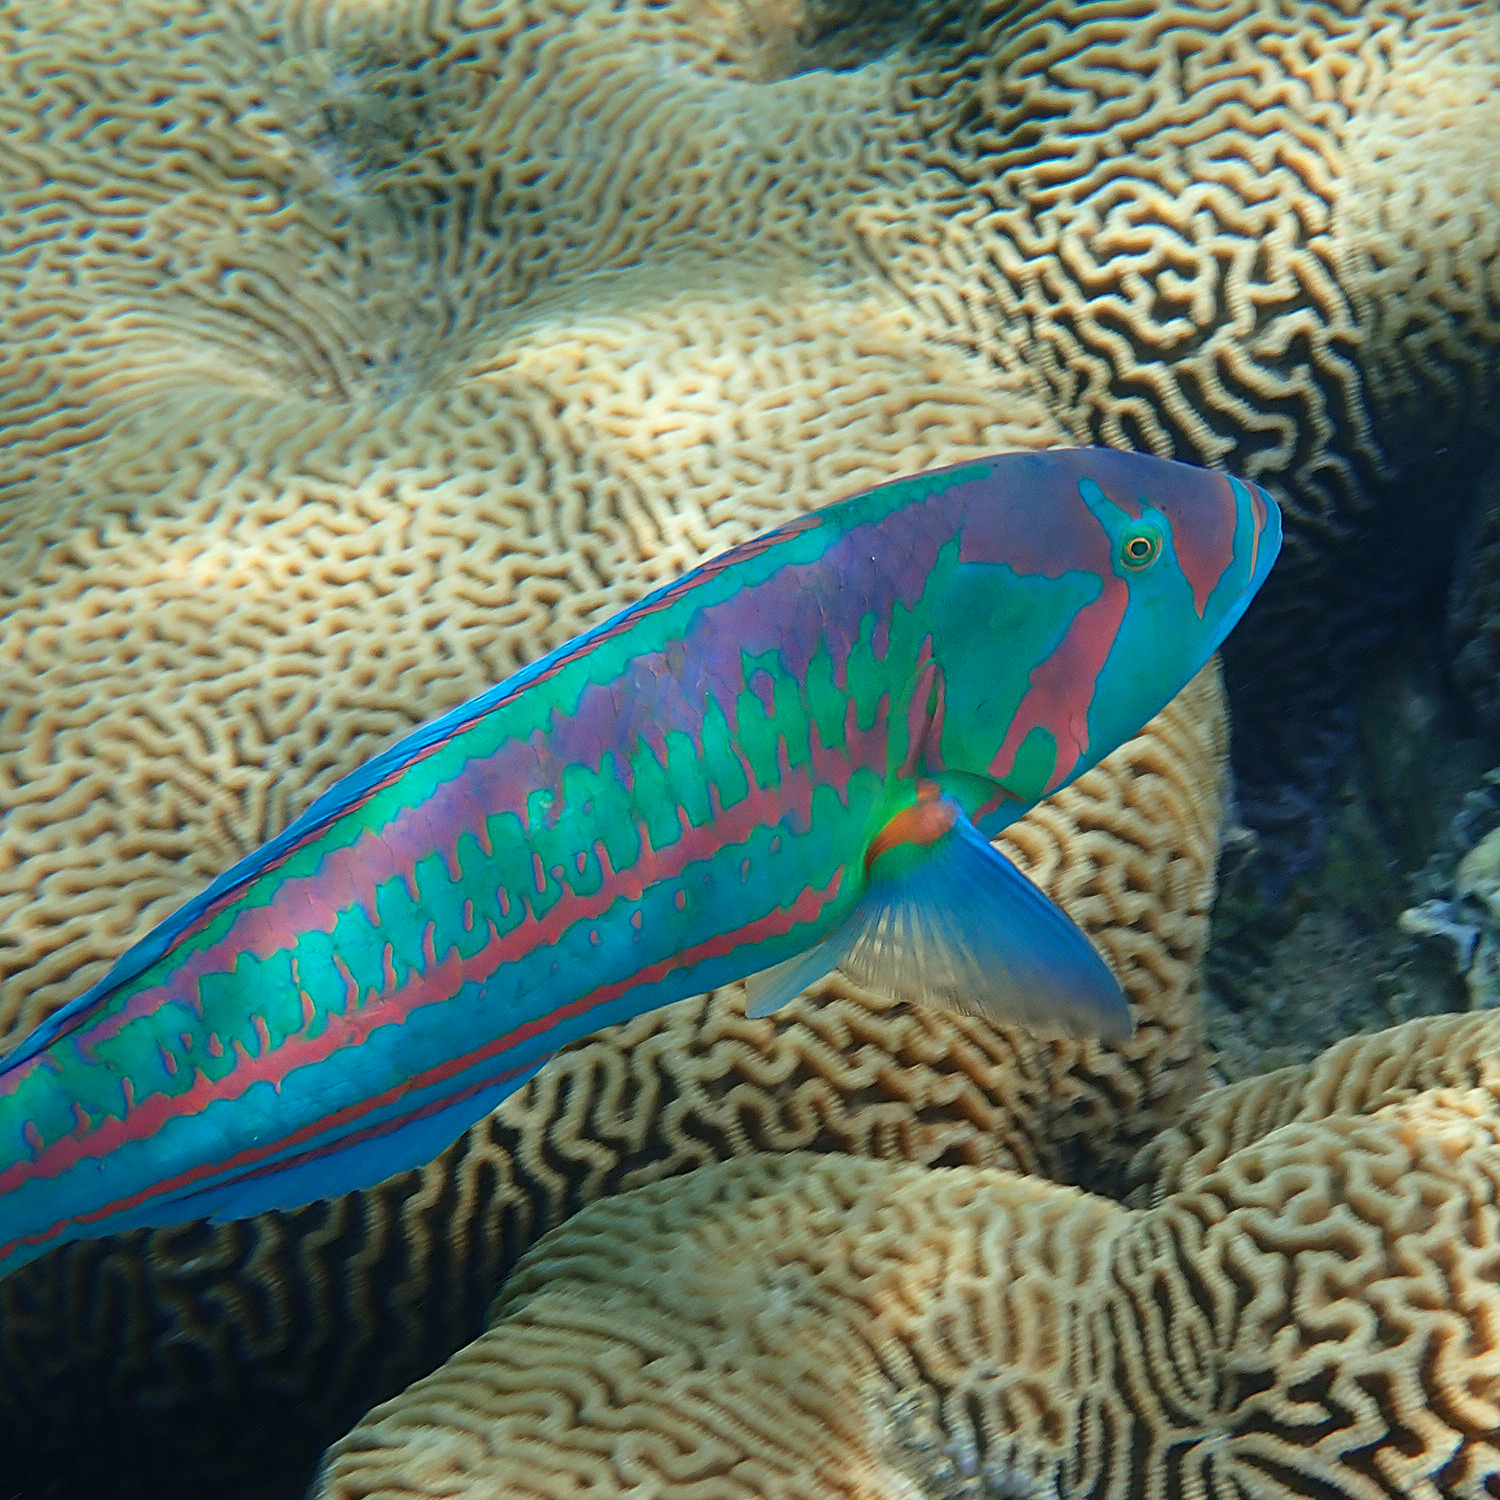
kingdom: Animalia
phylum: Chordata
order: Perciformes
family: Labridae
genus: Thalassoma
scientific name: Thalassoma purpureum
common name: Parrotfish
